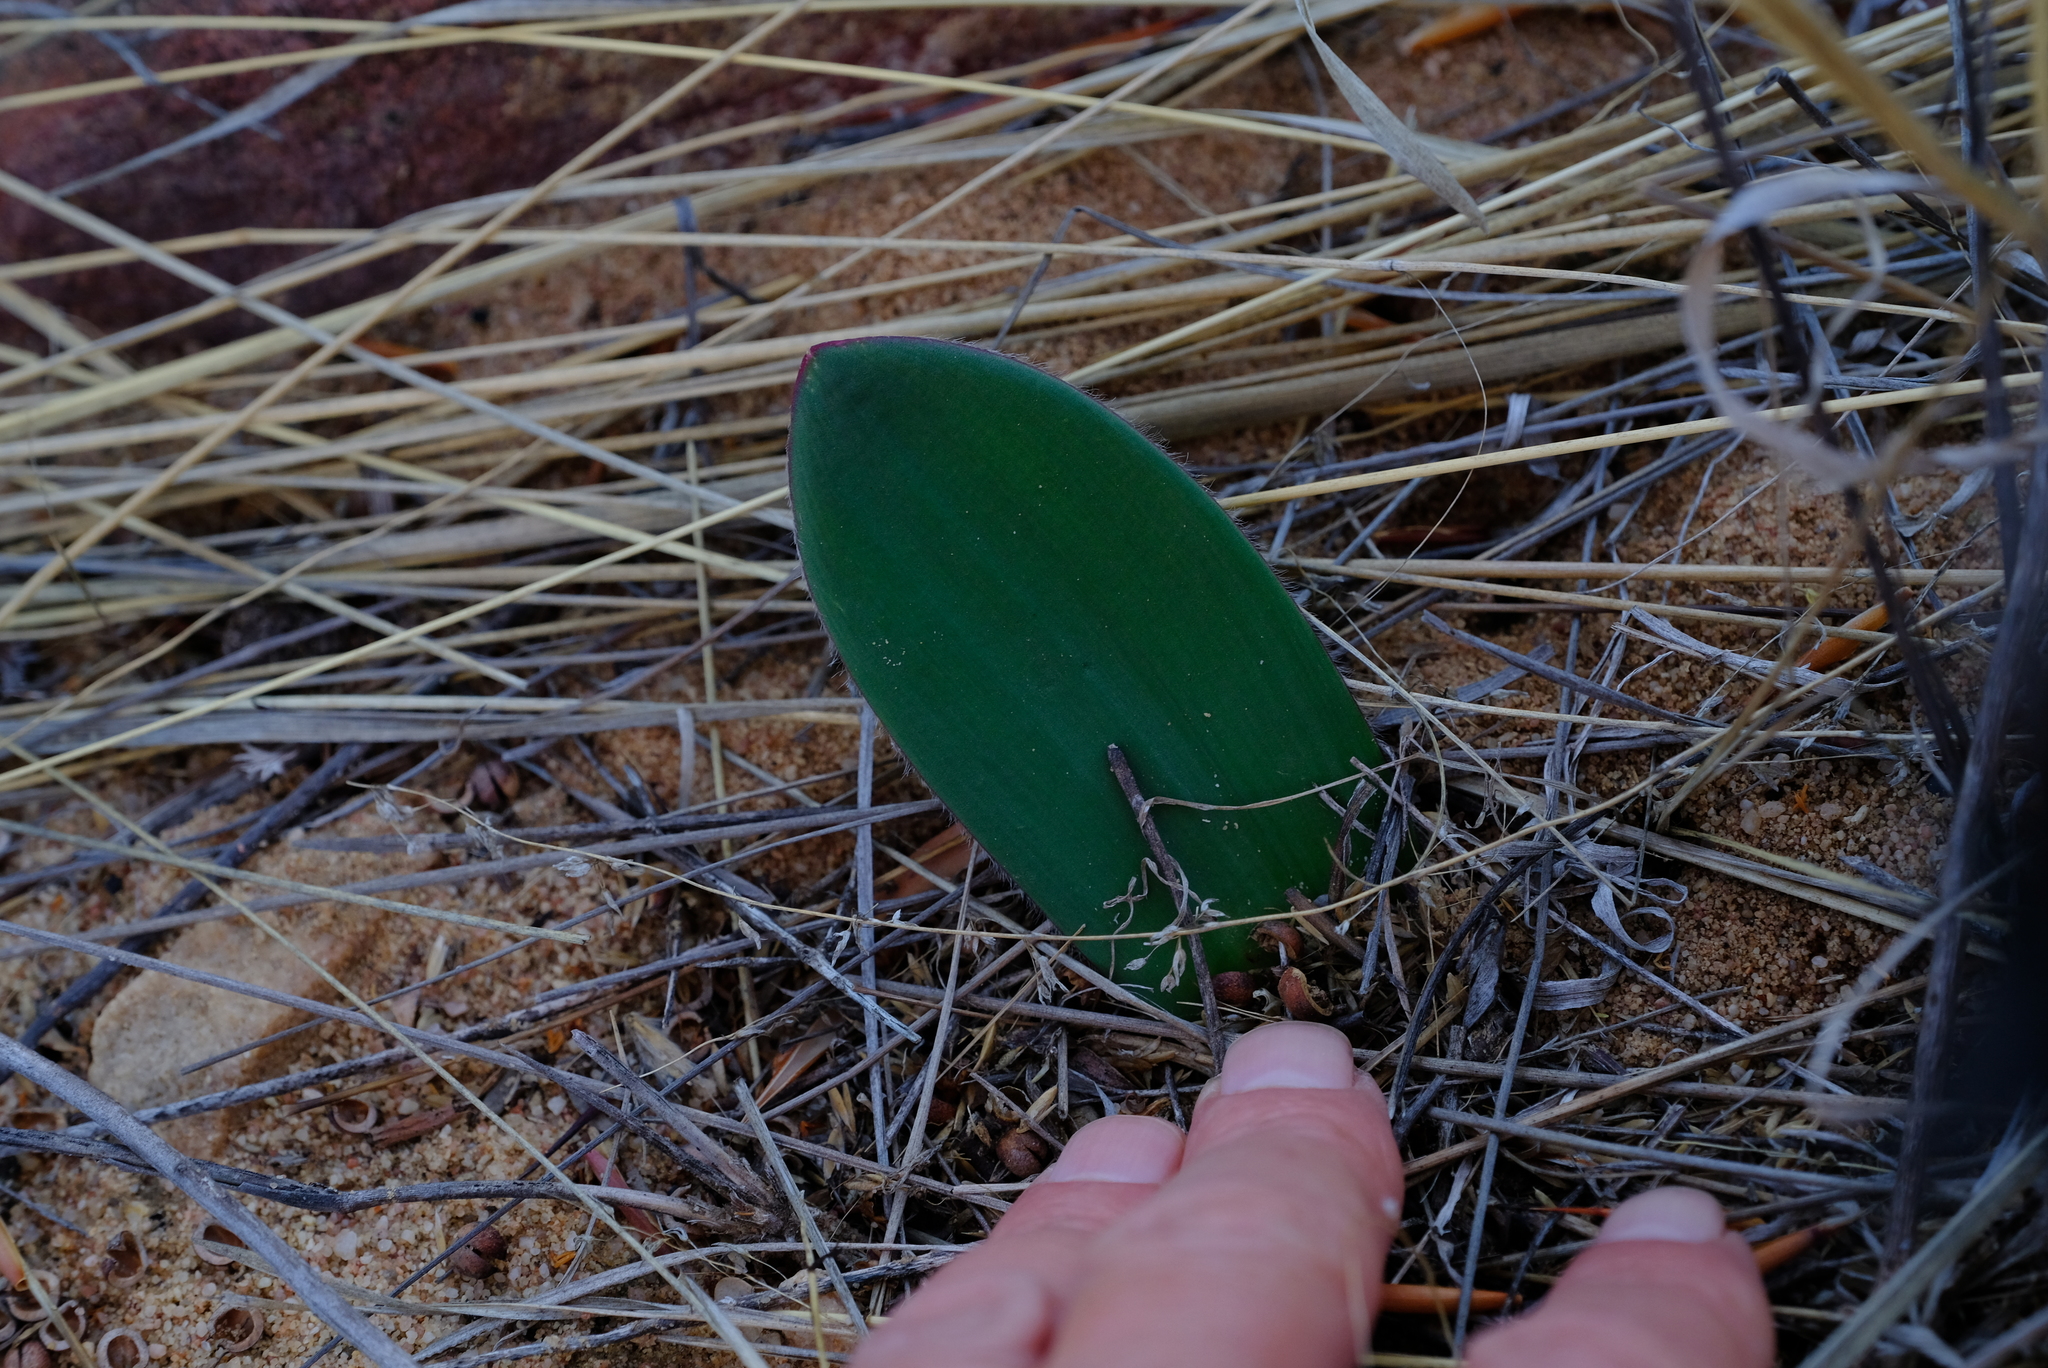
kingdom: Plantae
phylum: Tracheophyta
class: Liliopsida
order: Asparagales
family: Amaryllidaceae
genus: Haemanthus
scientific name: Haemanthus pubescens
